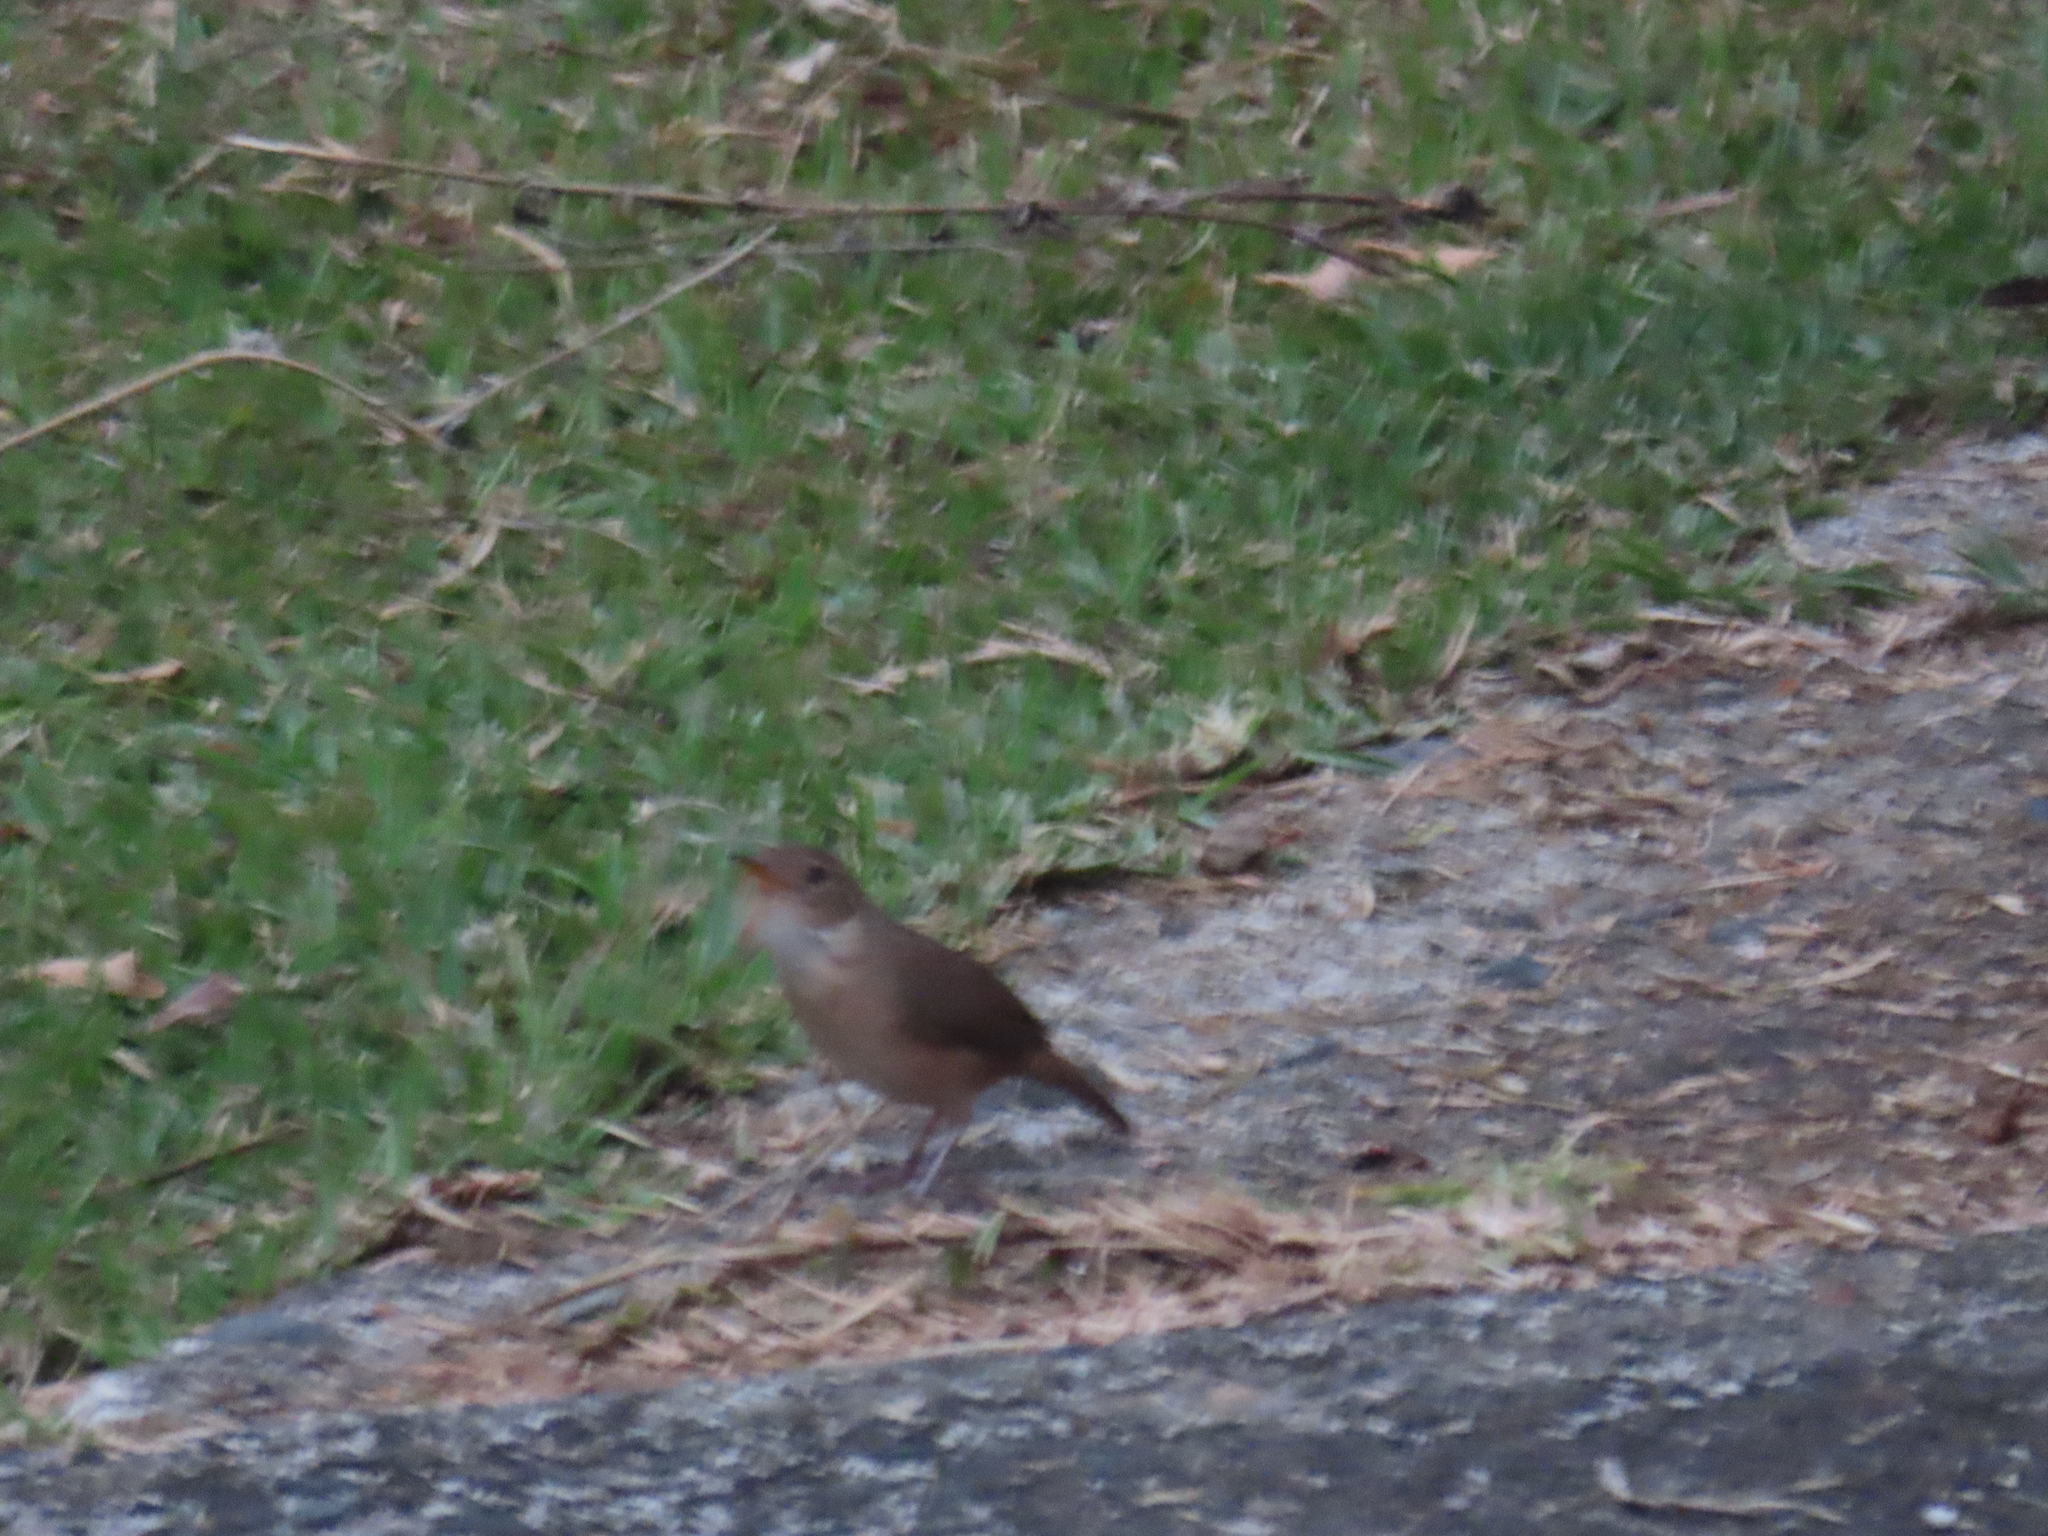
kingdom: Animalia
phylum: Chordata
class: Aves
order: Passeriformes
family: Troglodytidae
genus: Troglodytes
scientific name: Troglodytes aedon
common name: House wren
